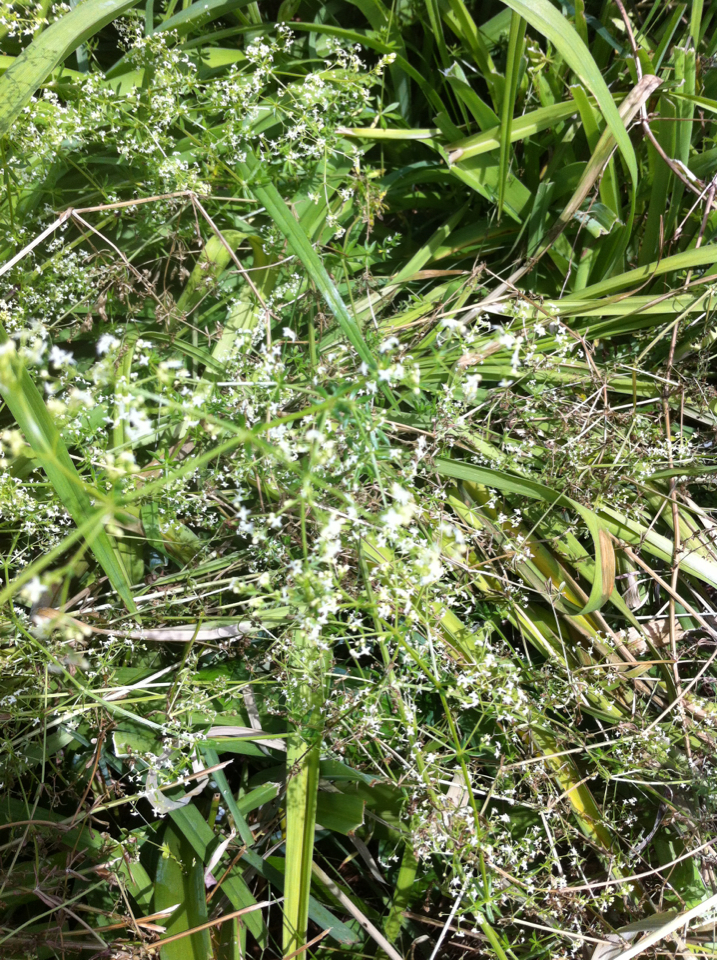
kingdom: Plantae
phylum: Tracheophyta
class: Magnoliopsida
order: Gentianales
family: Rubiaceae
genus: Galium
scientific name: Galium mollugo
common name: Hedge bedstraw
